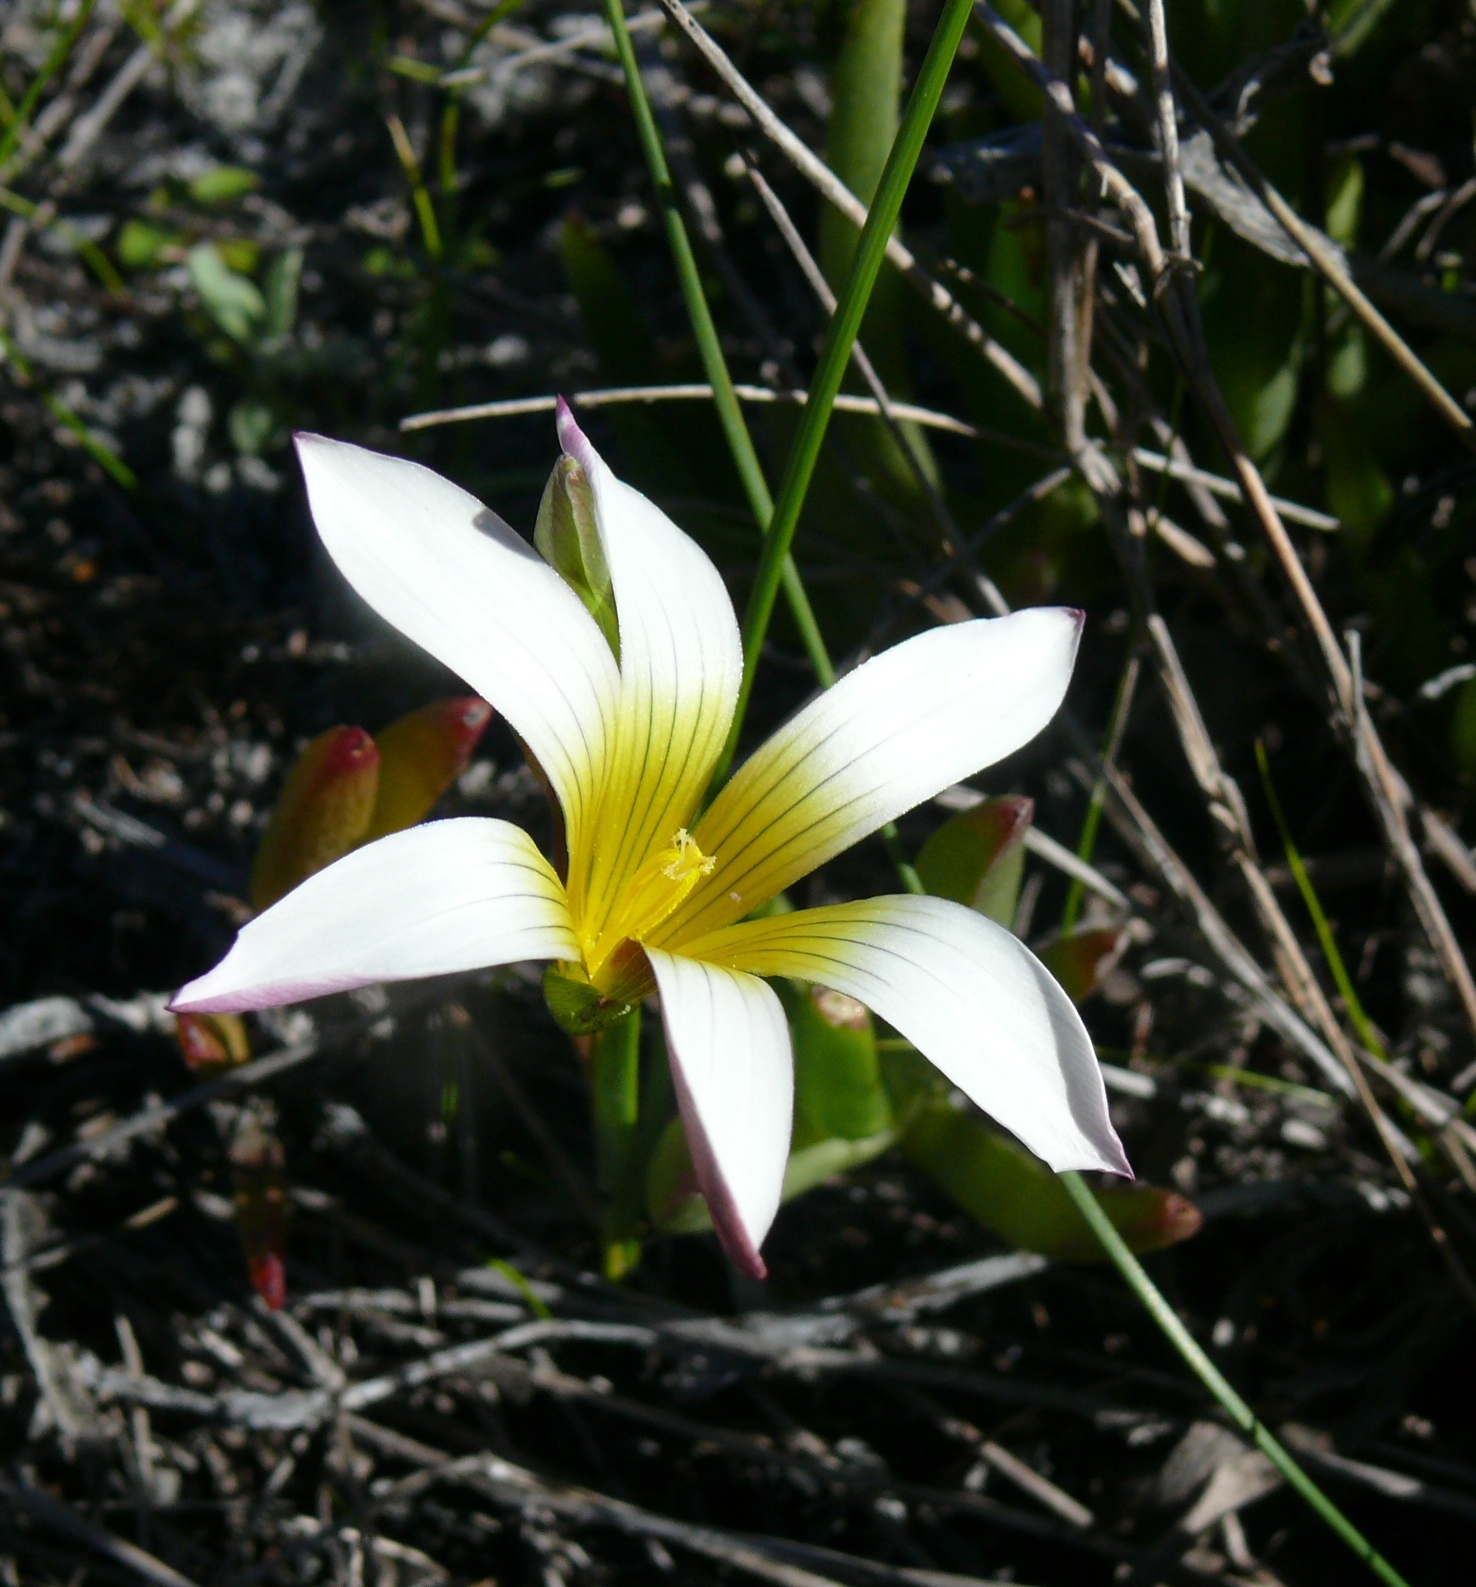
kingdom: Plantae
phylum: Tracheophyta
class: Liliopsida
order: Asparagales
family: Iridaceae
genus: Romulea
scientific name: Romulea flava
